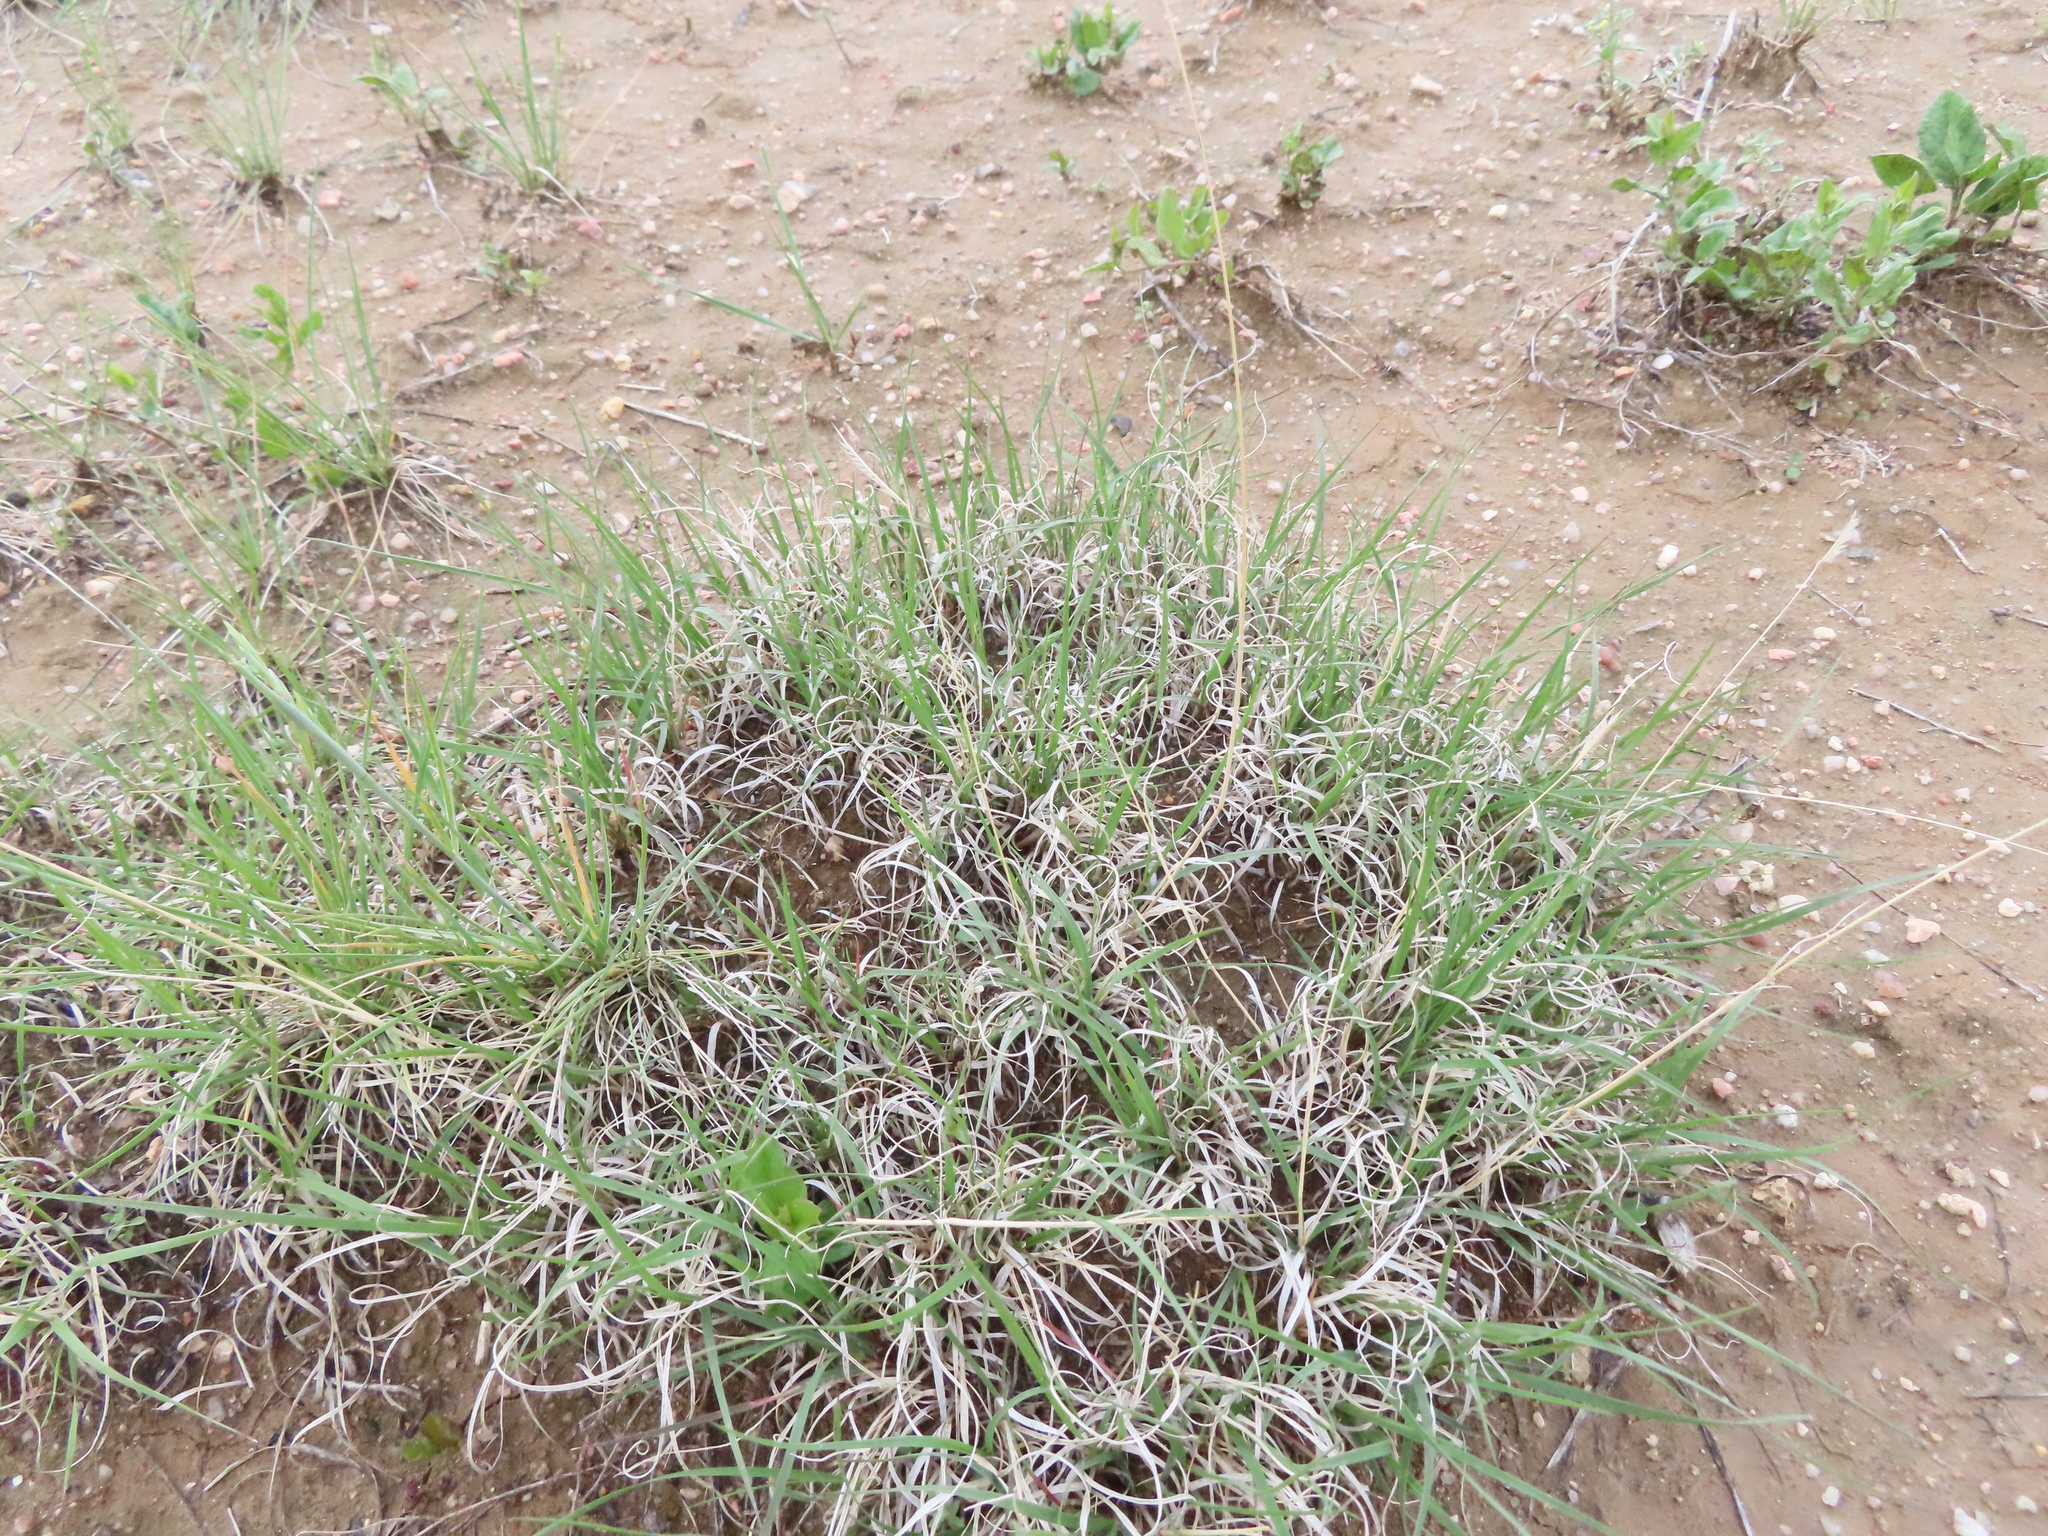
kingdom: Plantae
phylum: Tracheophyta
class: Liliopsida
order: Poales
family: Poaceae
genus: Bouteloua
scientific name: Bouteloua gracilis
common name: Blue grama
